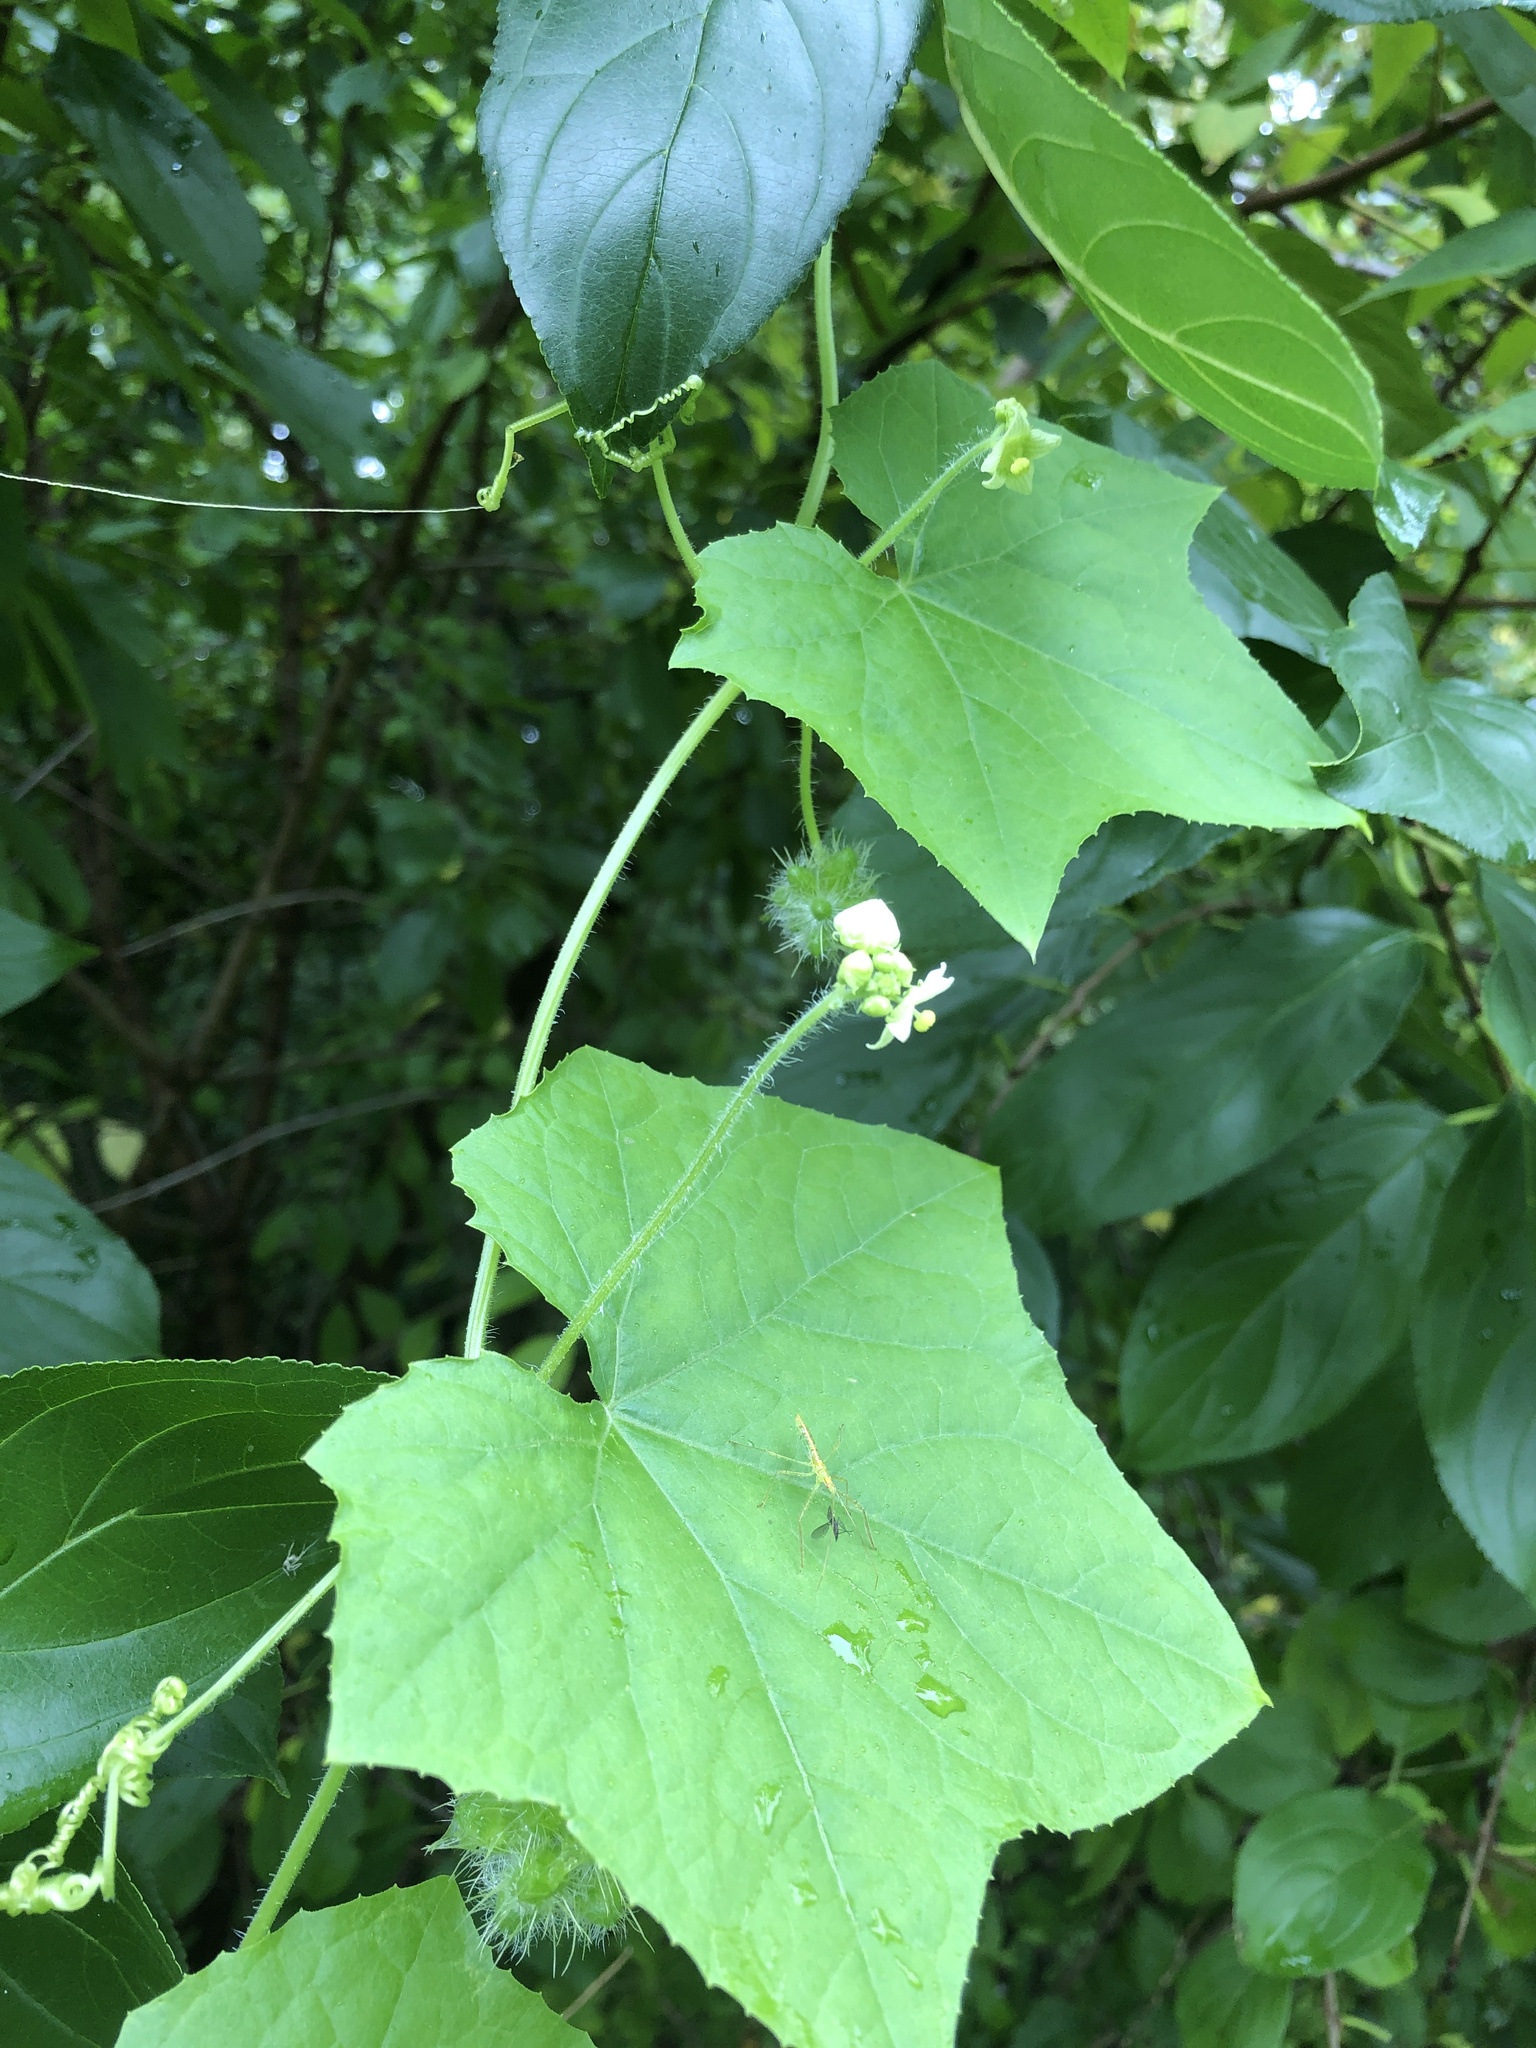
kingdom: Plantae
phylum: Tracheophyta
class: Magnoliopsida
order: Cucurbitales
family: Cucurbitaceae
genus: Sicyos
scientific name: Sicyos angulatus
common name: Angled burr cucumber
